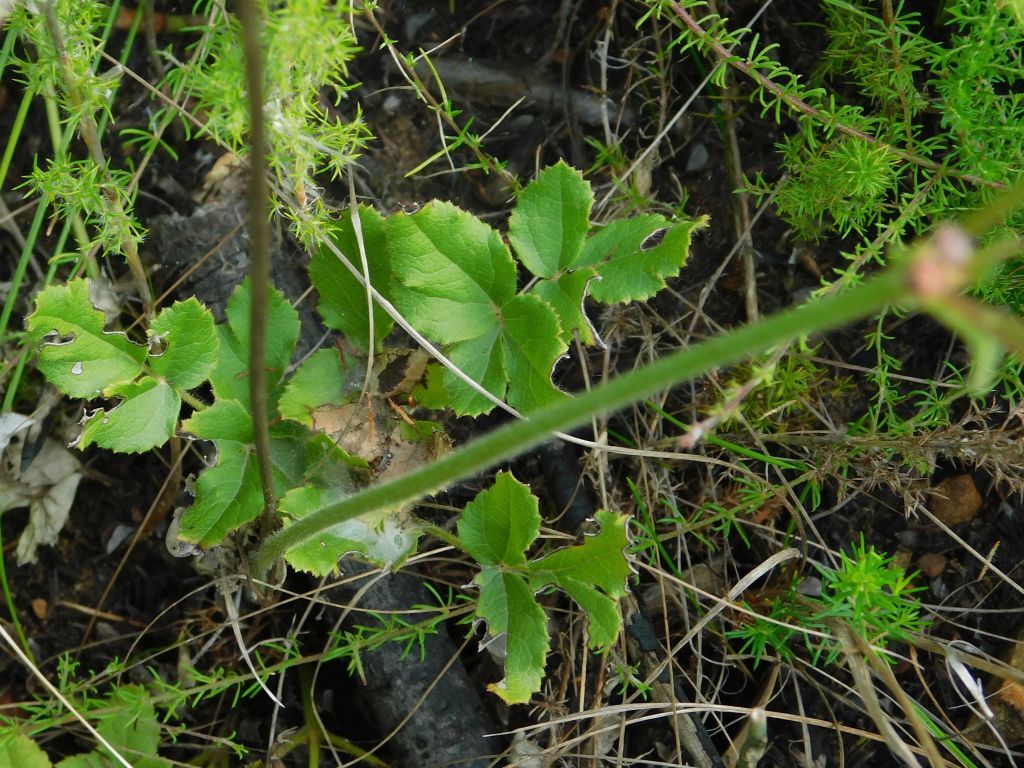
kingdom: Plantae
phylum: Tracheophyta
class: Magnoliopsida
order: Ranunculales
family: Ranunculaceae
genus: Knowltonia
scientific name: Knowltonia anemonoides
